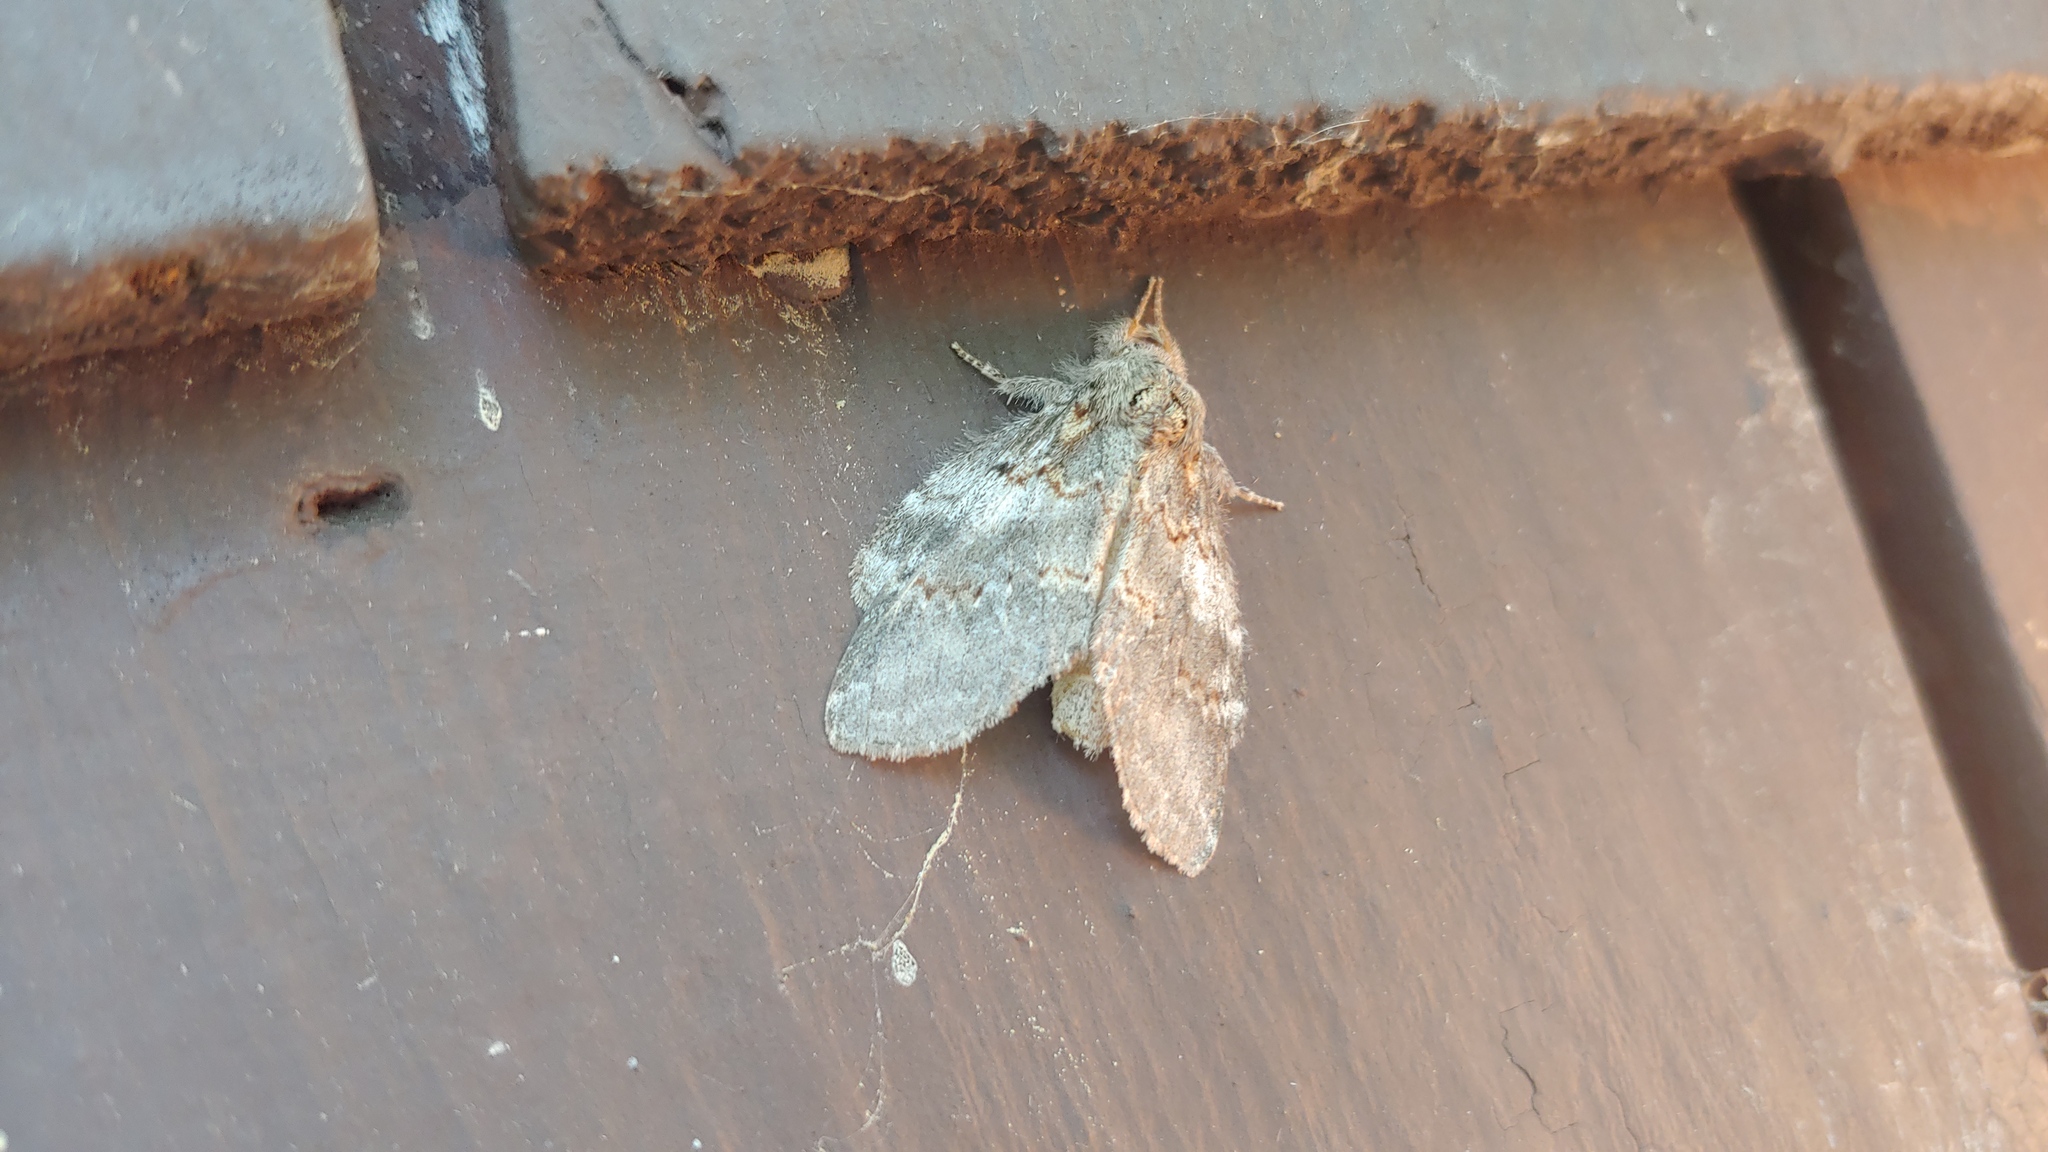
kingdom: Animalia
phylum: Arthropoda
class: Insecta
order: Lepidoptera
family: Notodontidae
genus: Peridea
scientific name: Peridea angulosa
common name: Angulose prominent
